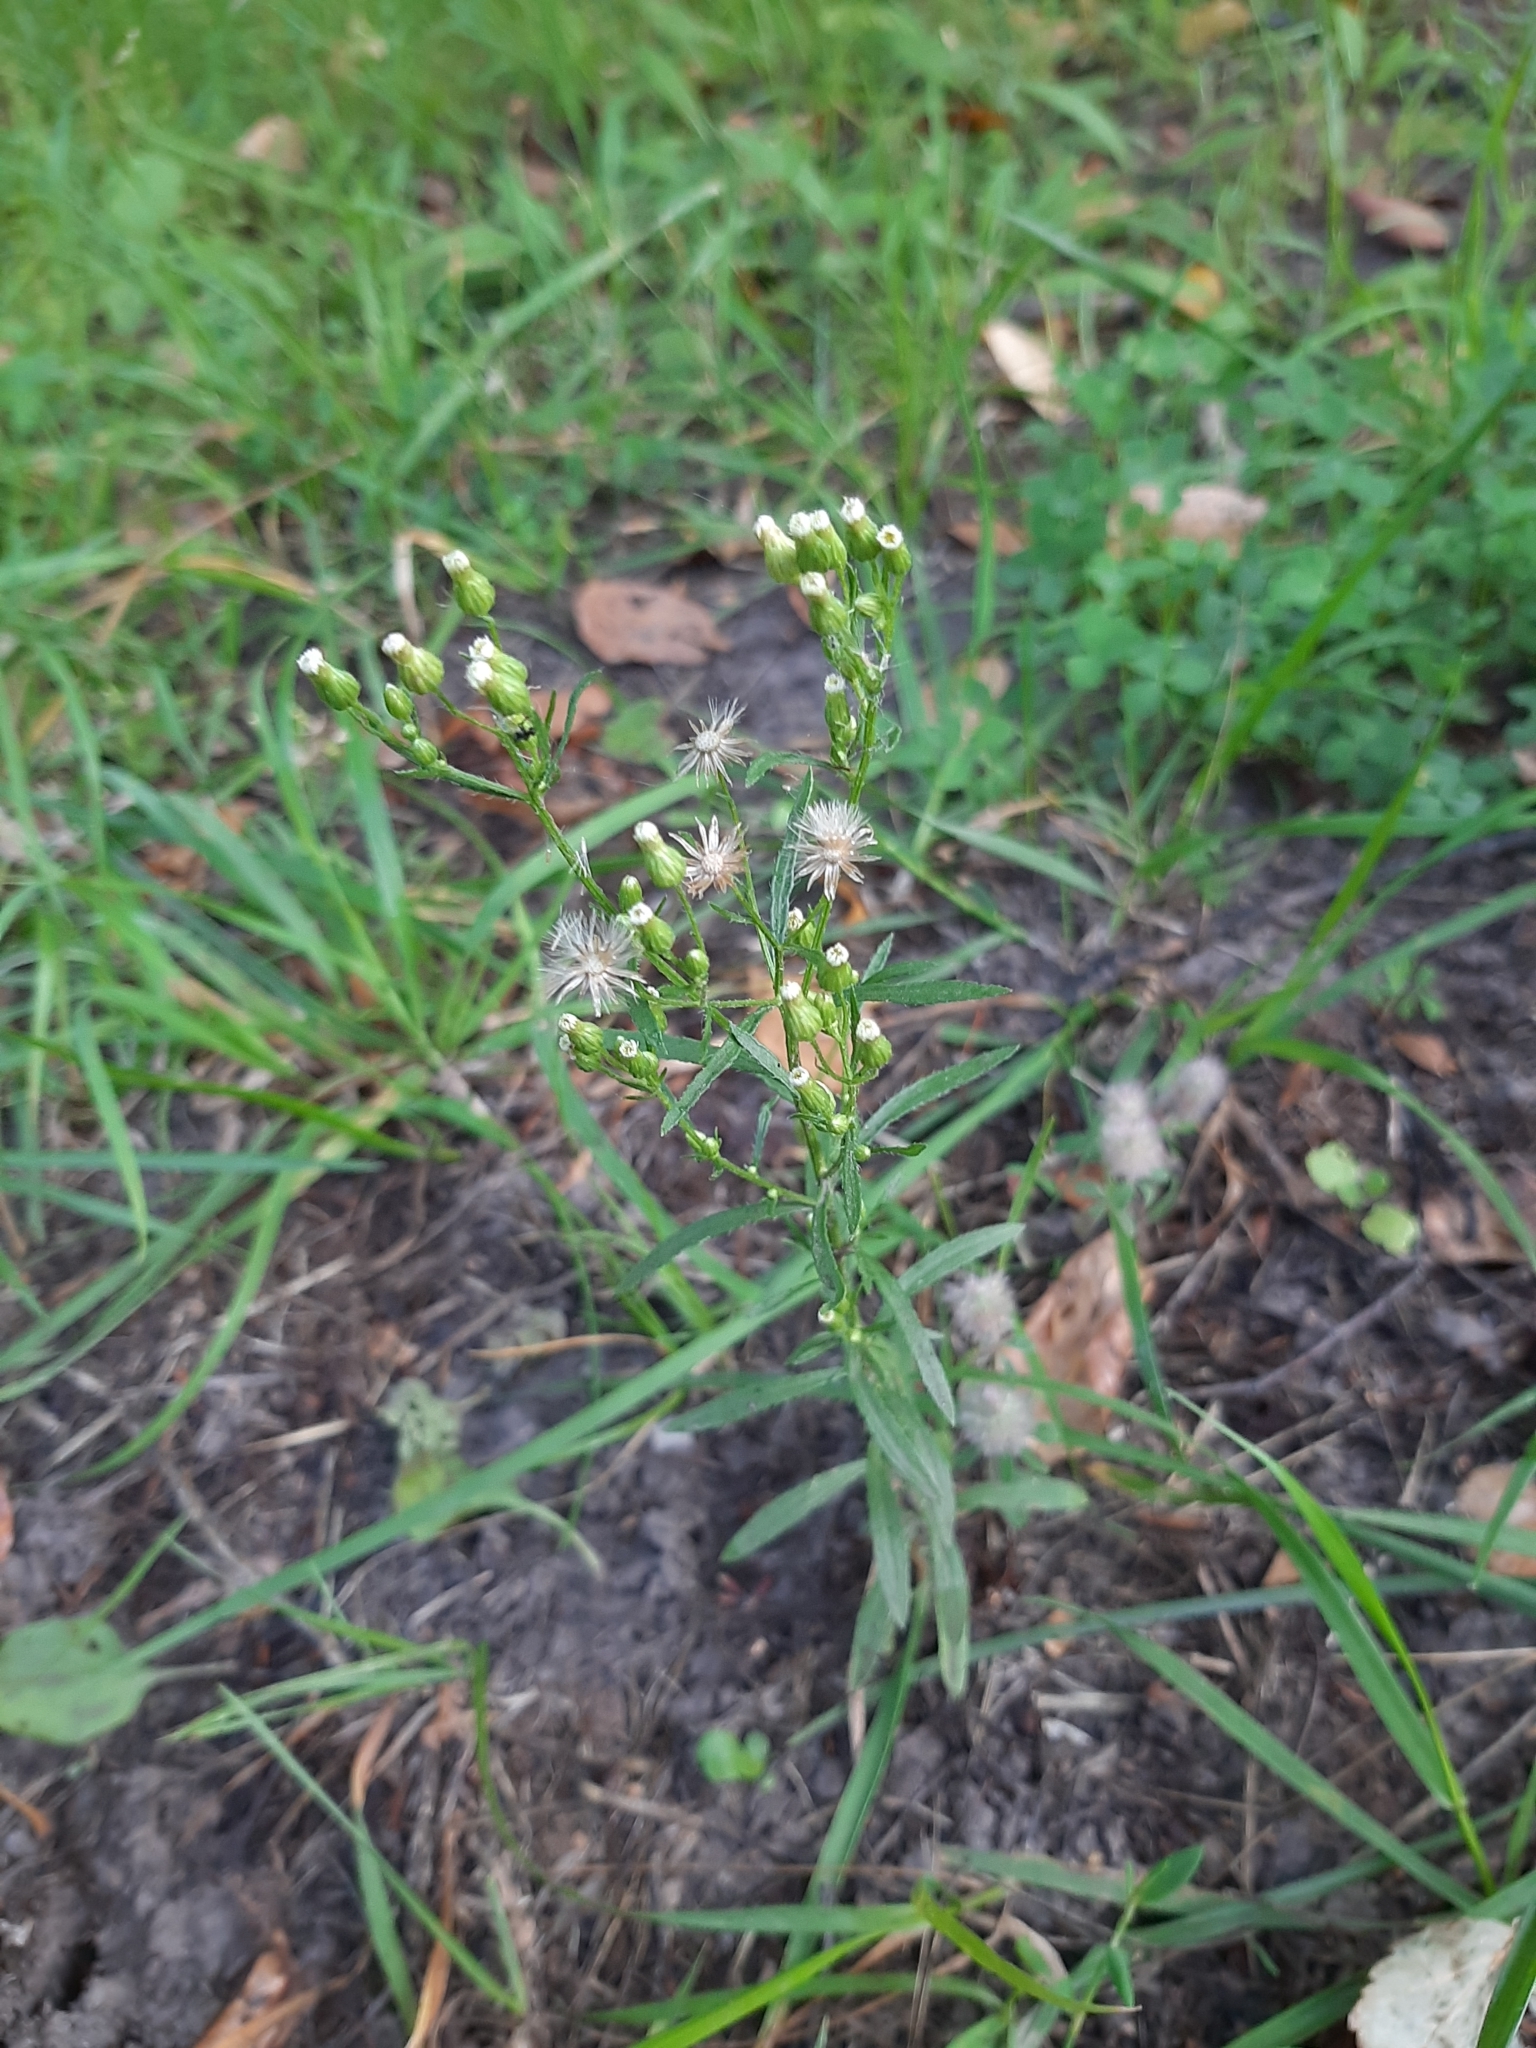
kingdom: Plantae
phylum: Tracheophyta
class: Magnoliopsida
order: Asterales
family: Asteraceae
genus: Erigeron
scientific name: Erigeron canadensis
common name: Canadian fleabane
